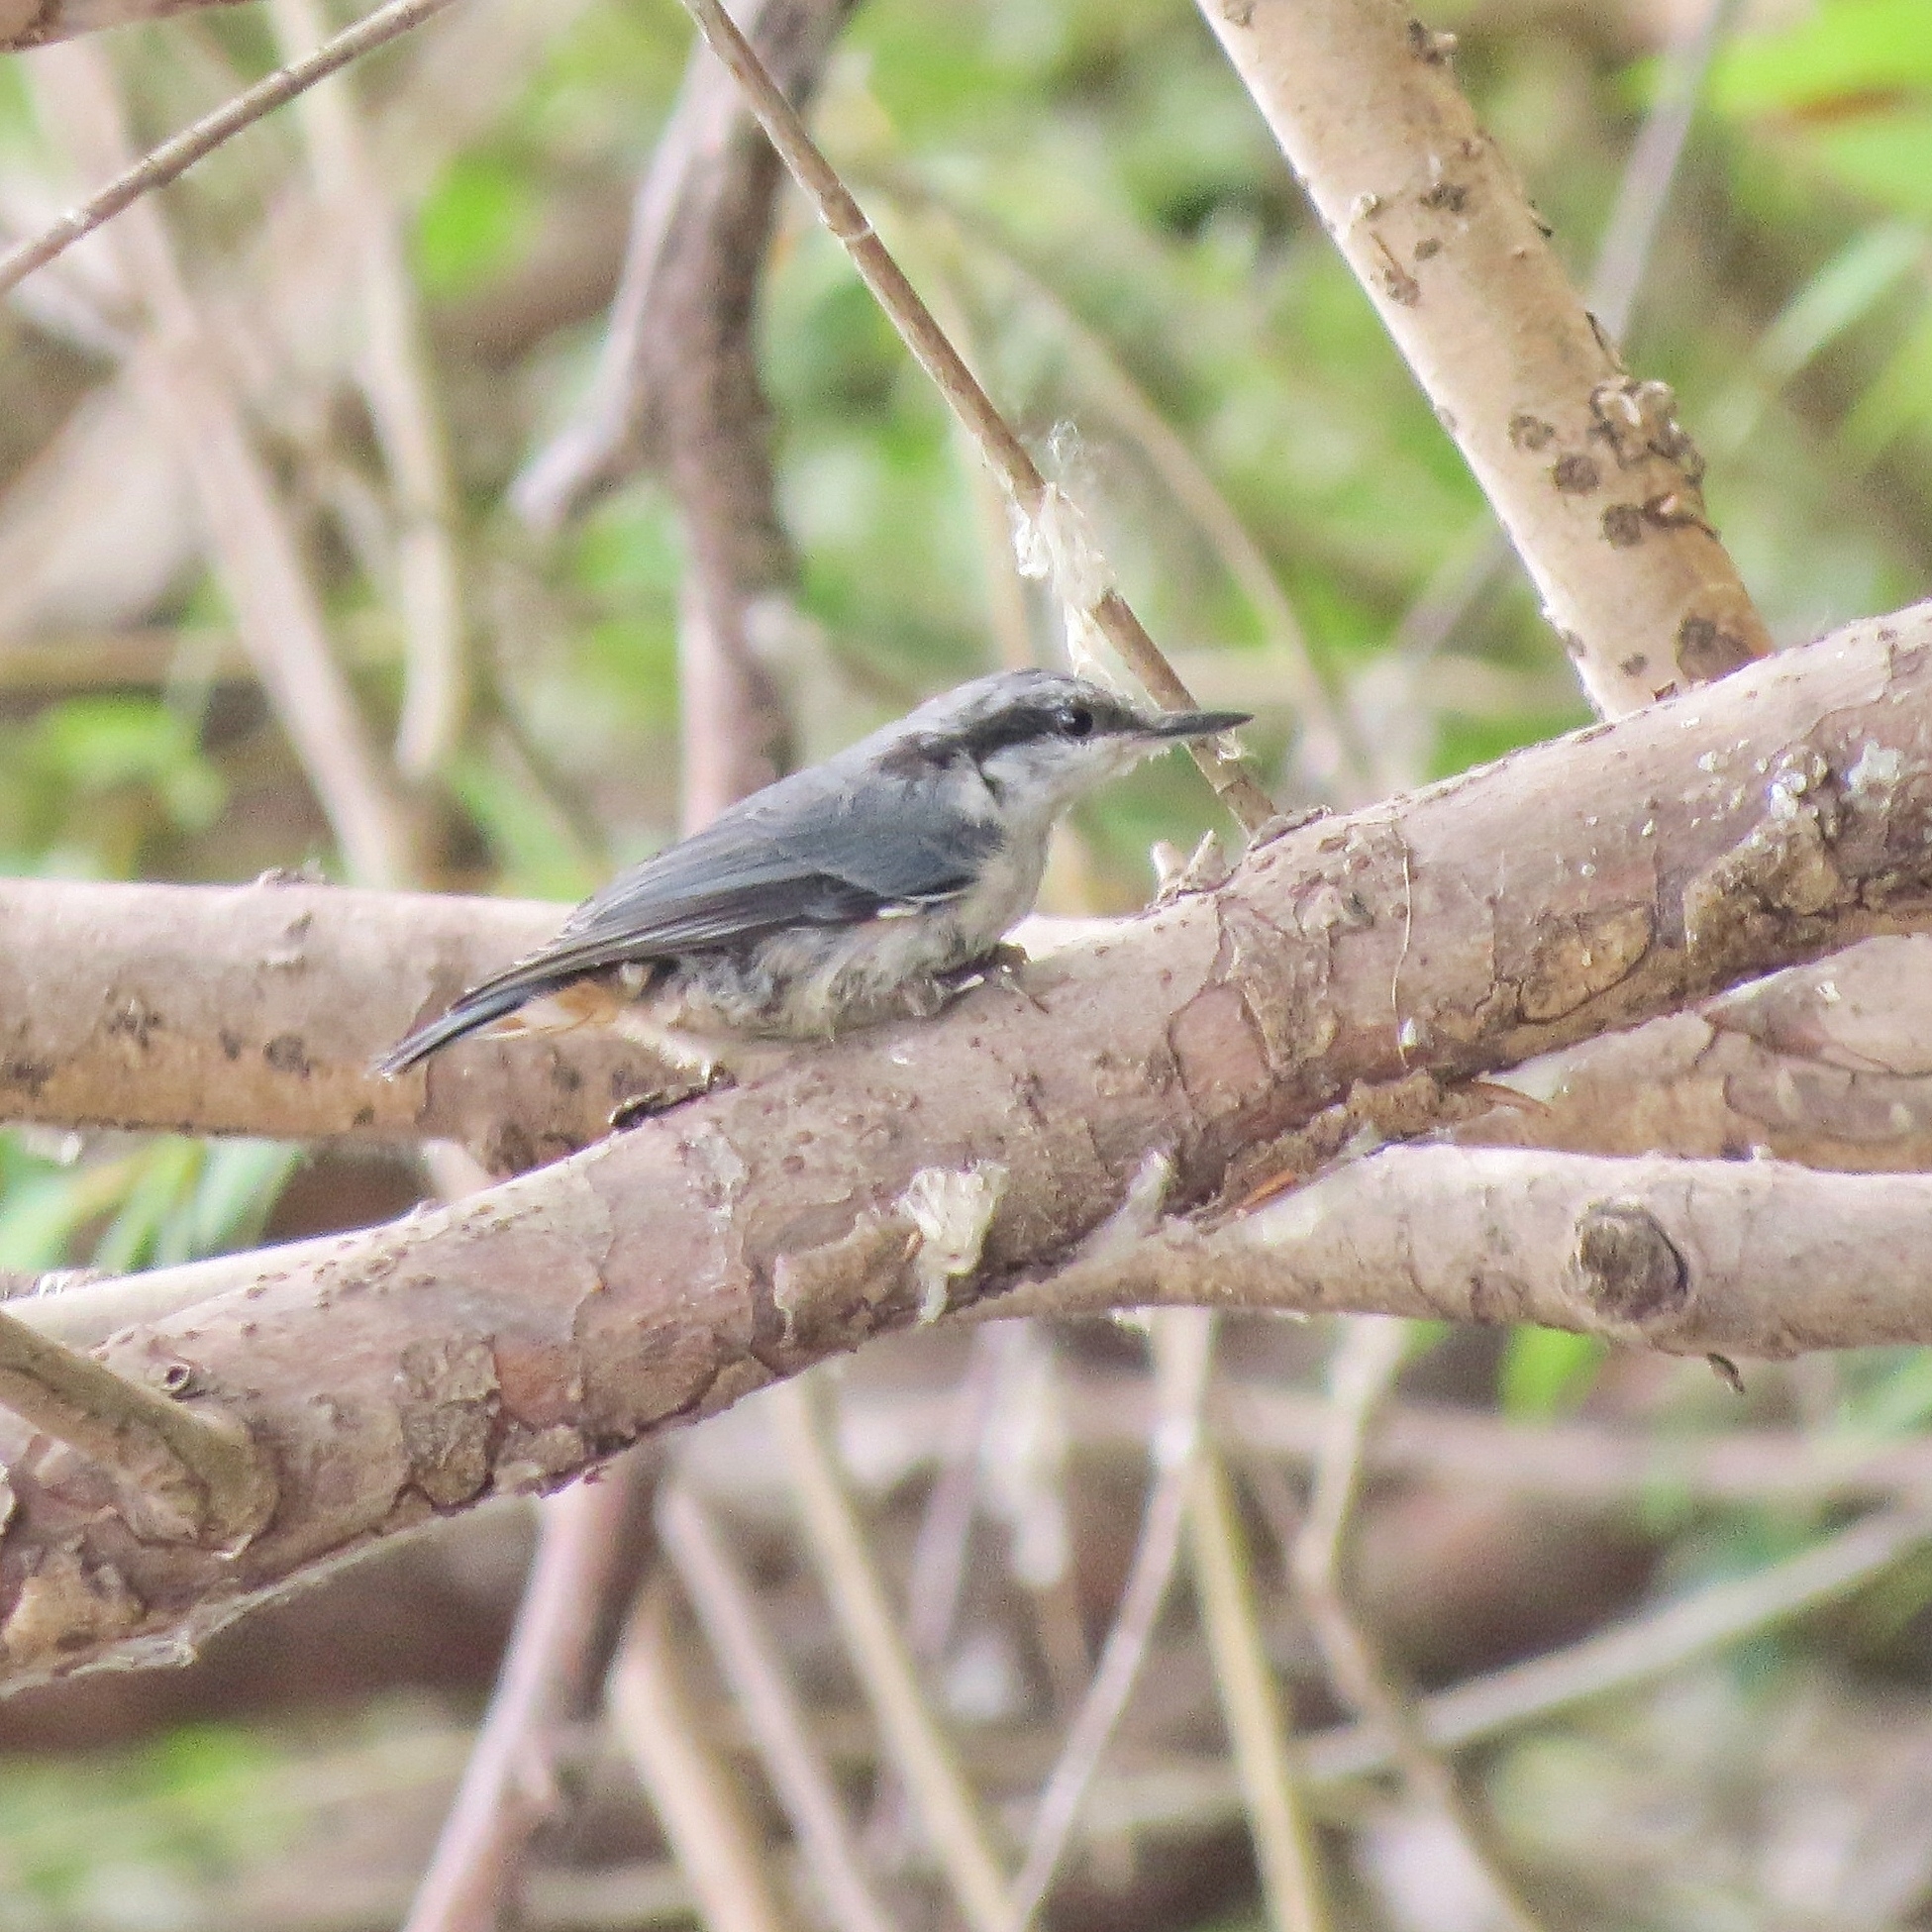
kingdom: Animalia
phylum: Chordata
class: Aves
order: Passeriformes
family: Sittidae
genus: Sitta
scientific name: Sitta europaea
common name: Eurasian nuthatch
